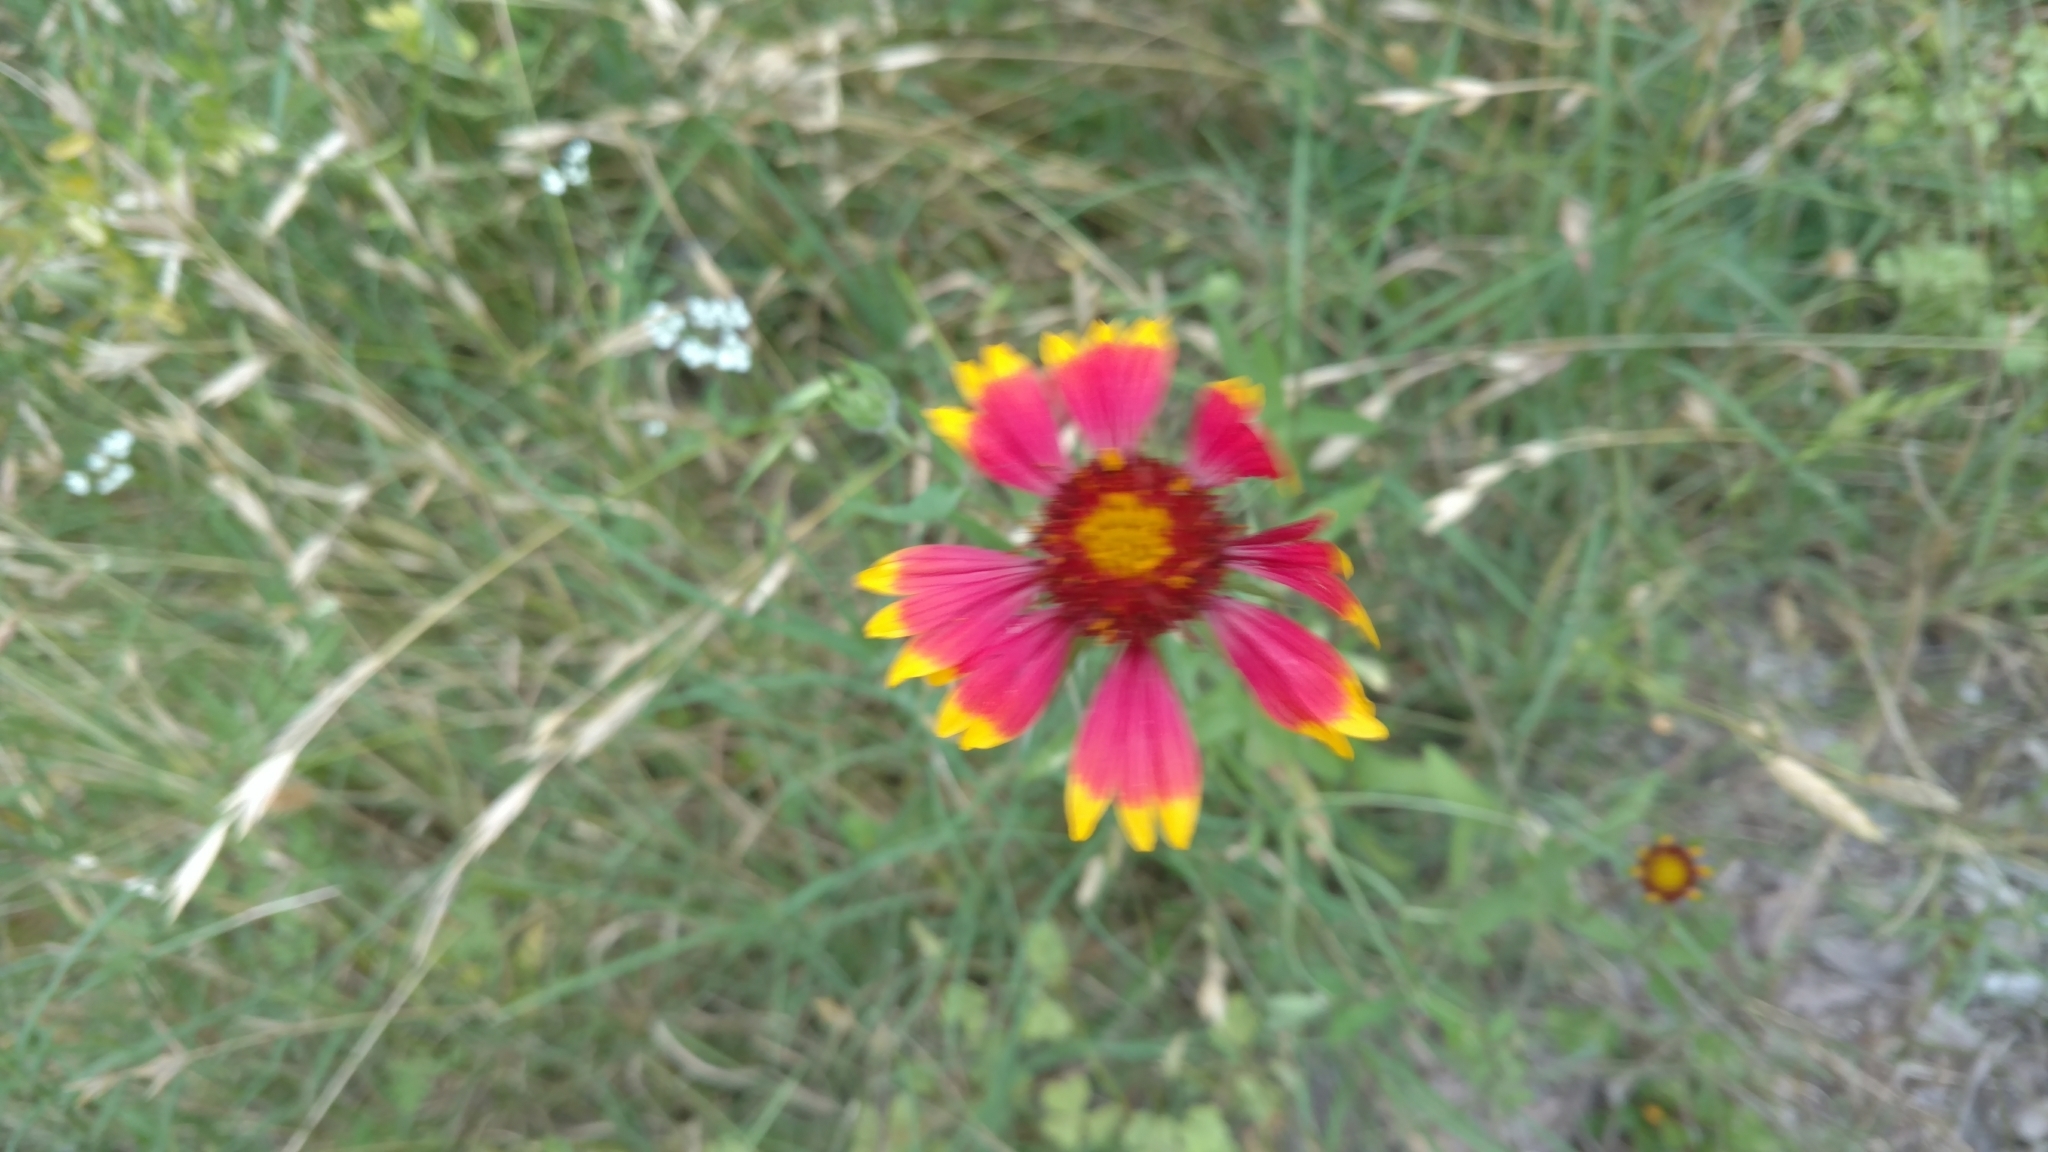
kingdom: Plantae
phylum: Tracheophyta
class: Magnoliopsida
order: Asterales
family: Asteraceae
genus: Gaillardia
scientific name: Gaillardia pulchella
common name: Firewheel
